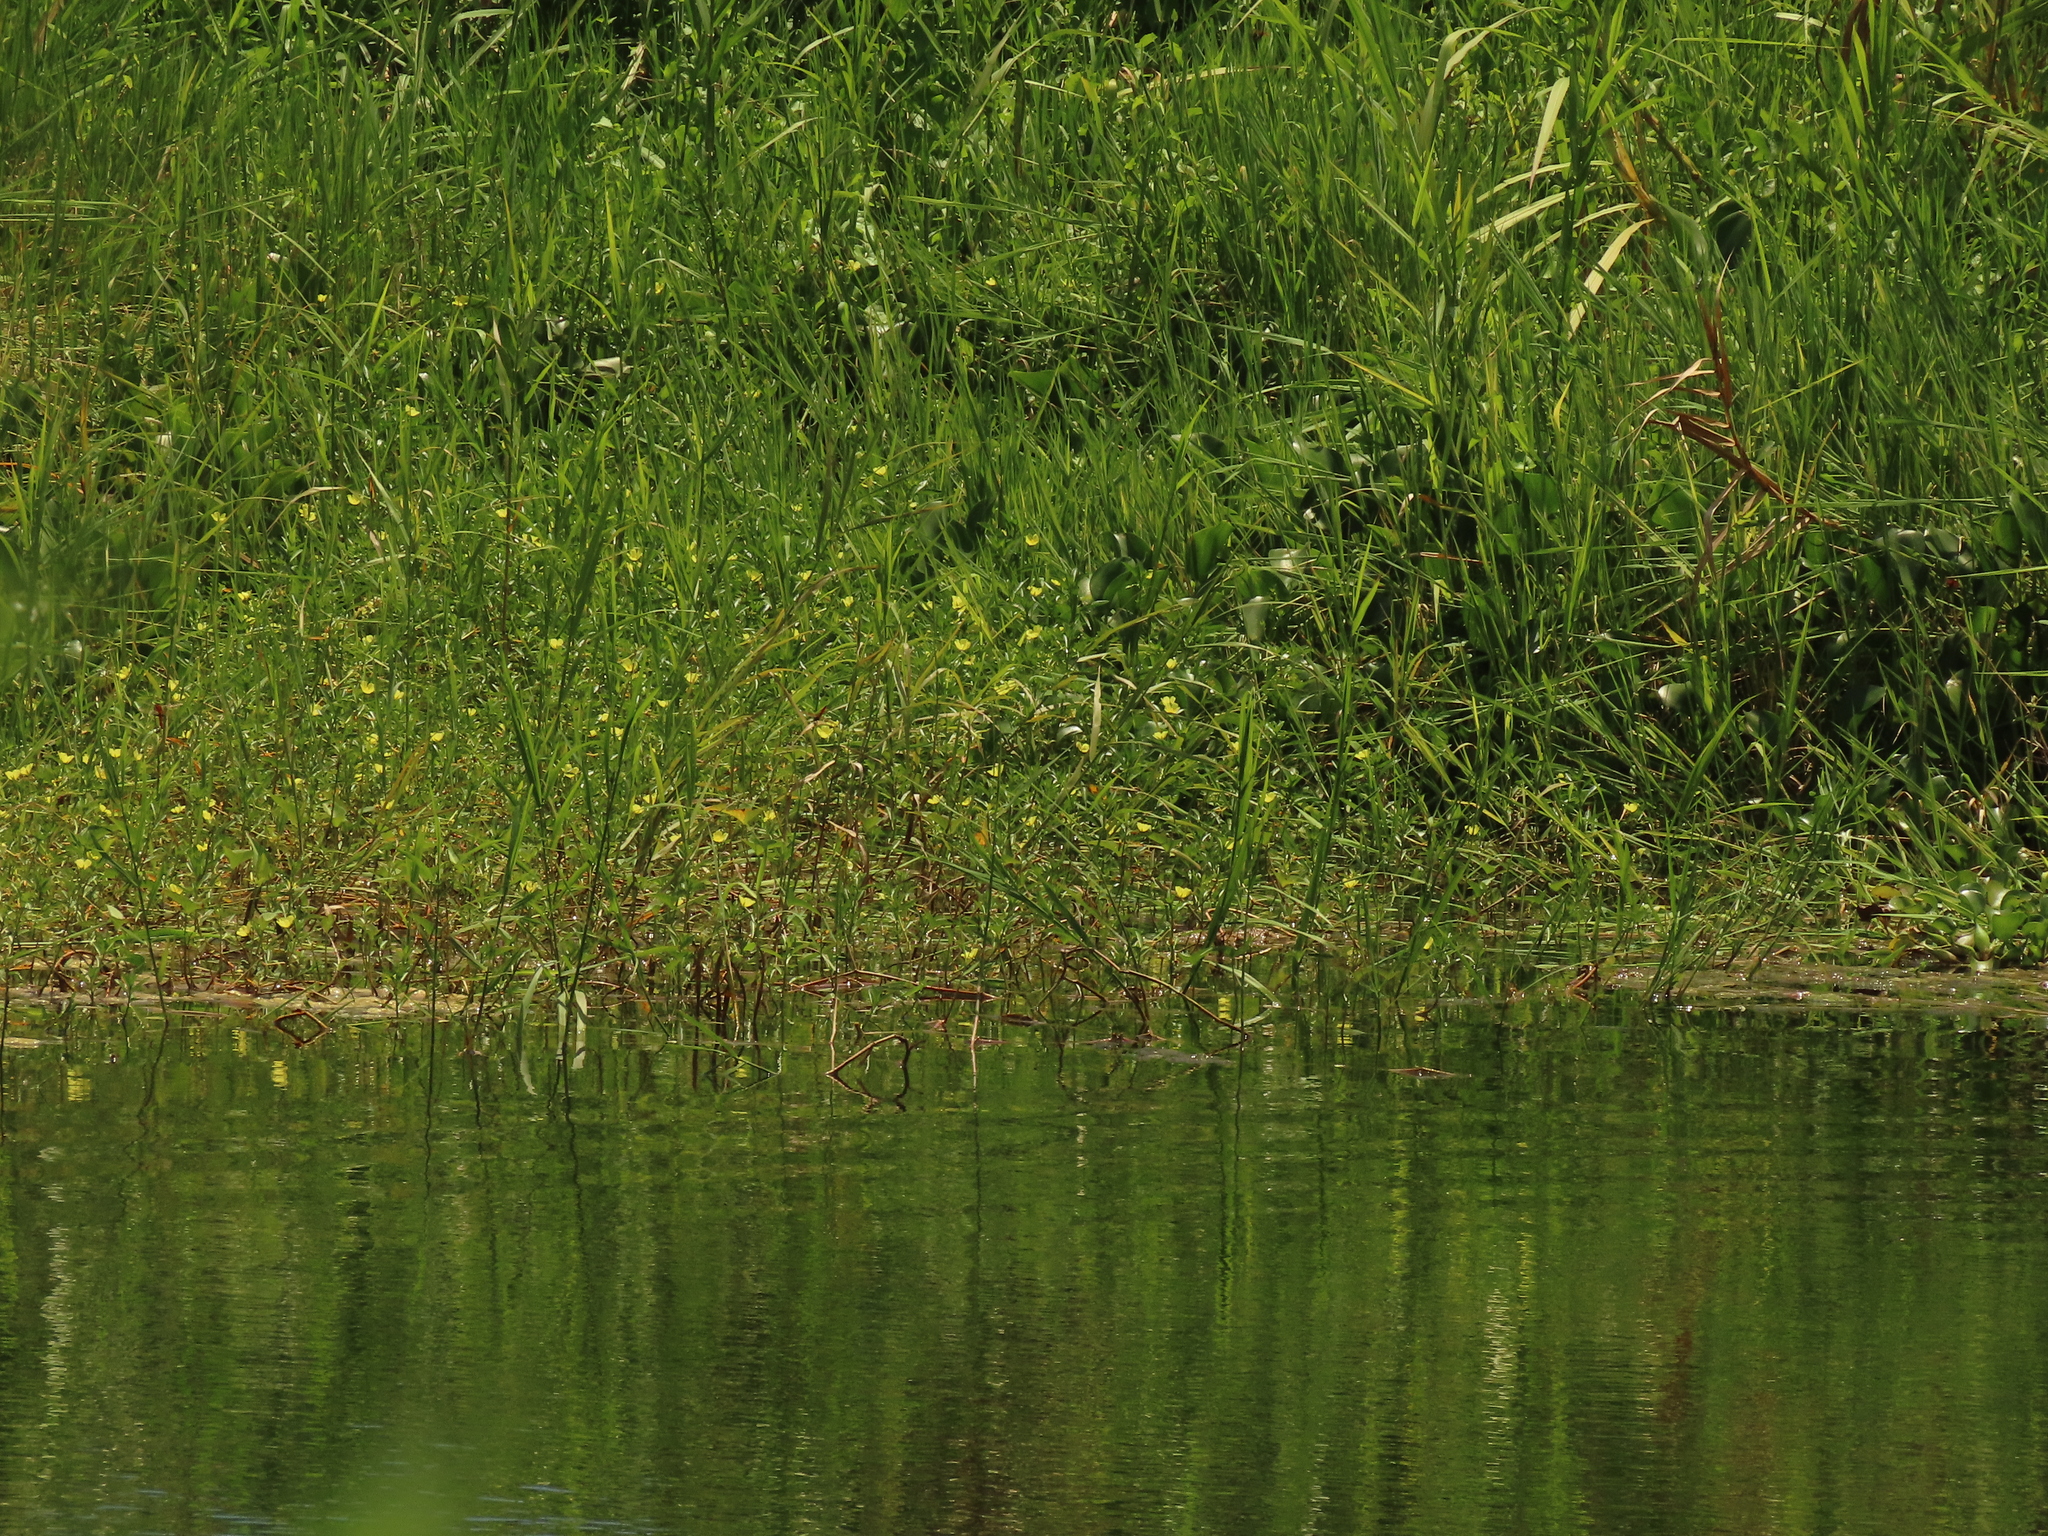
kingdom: Plantae
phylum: Tracheophyta
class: Magnoliopsida
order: Myrtales
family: Onagraceae
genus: Ludwigia
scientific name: Ludwigia taiwanensis
